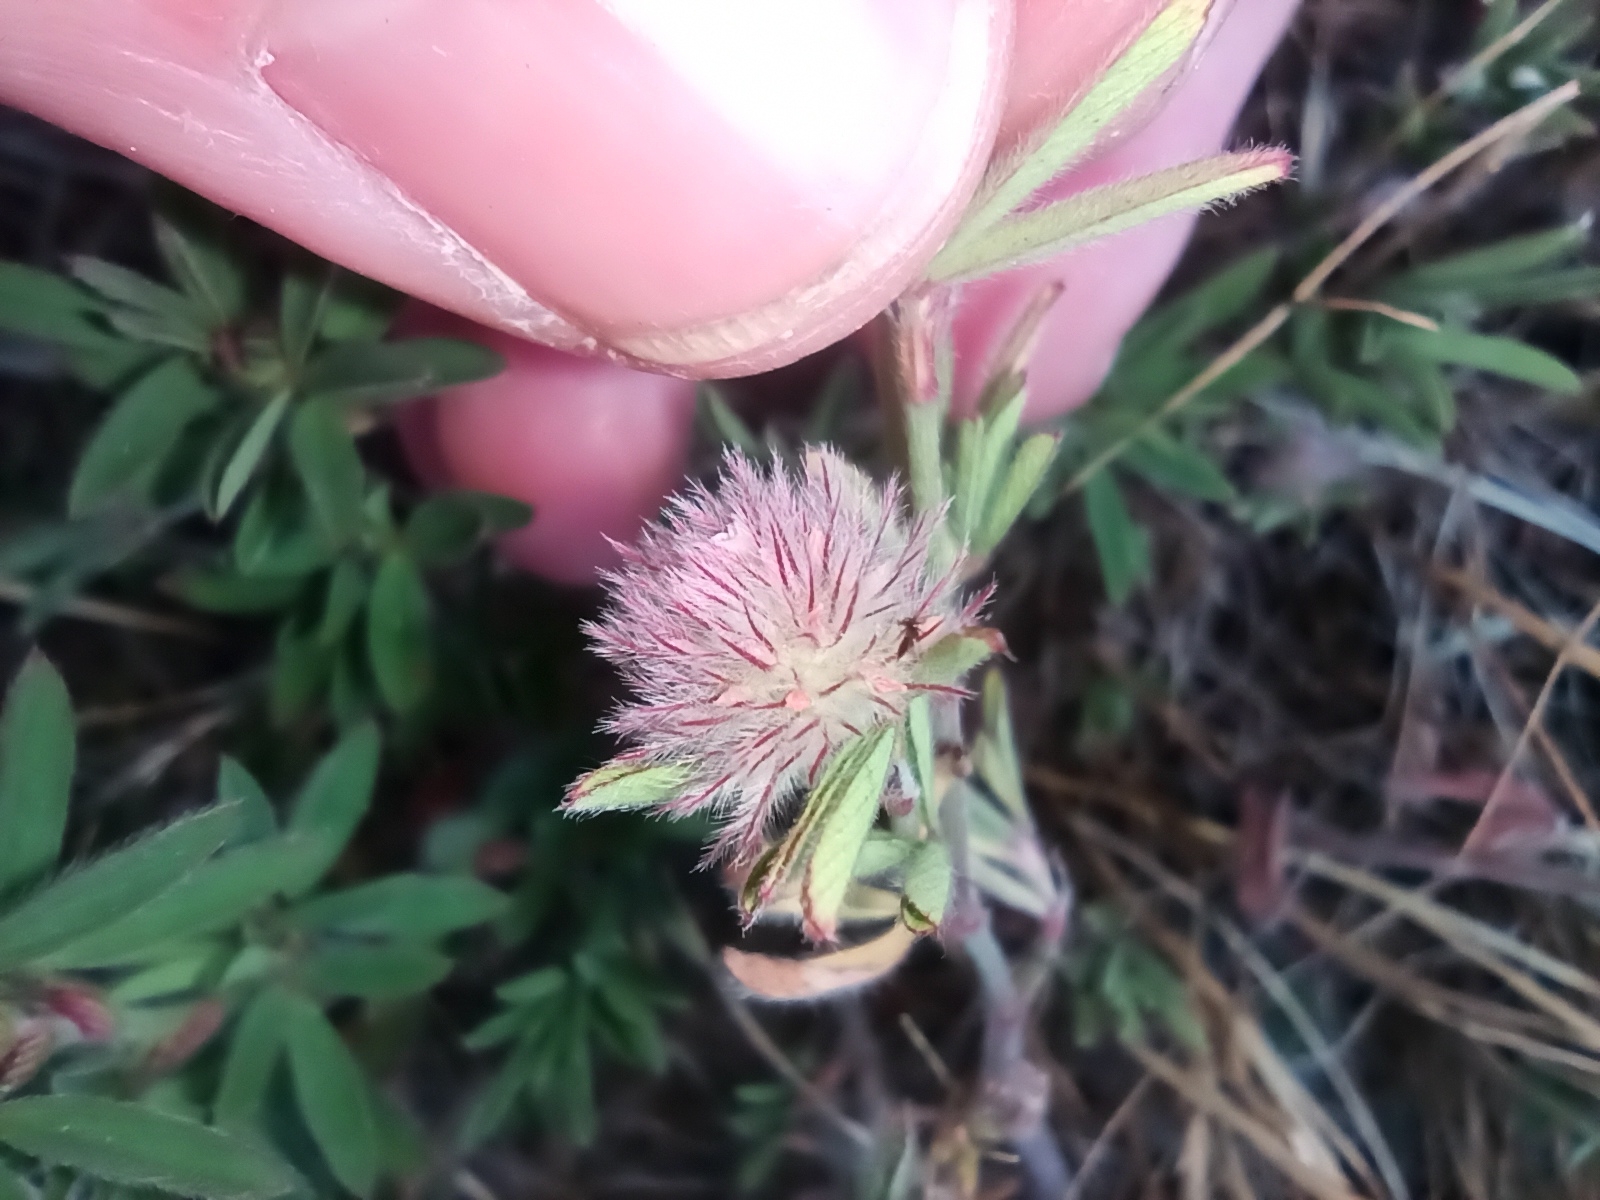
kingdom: Plantae
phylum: Tracheophyta
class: Magnoliopsida
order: Fabales
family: Fabaceae
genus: Trifolium
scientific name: Trifolium arvense
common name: Hare's-foot clover
